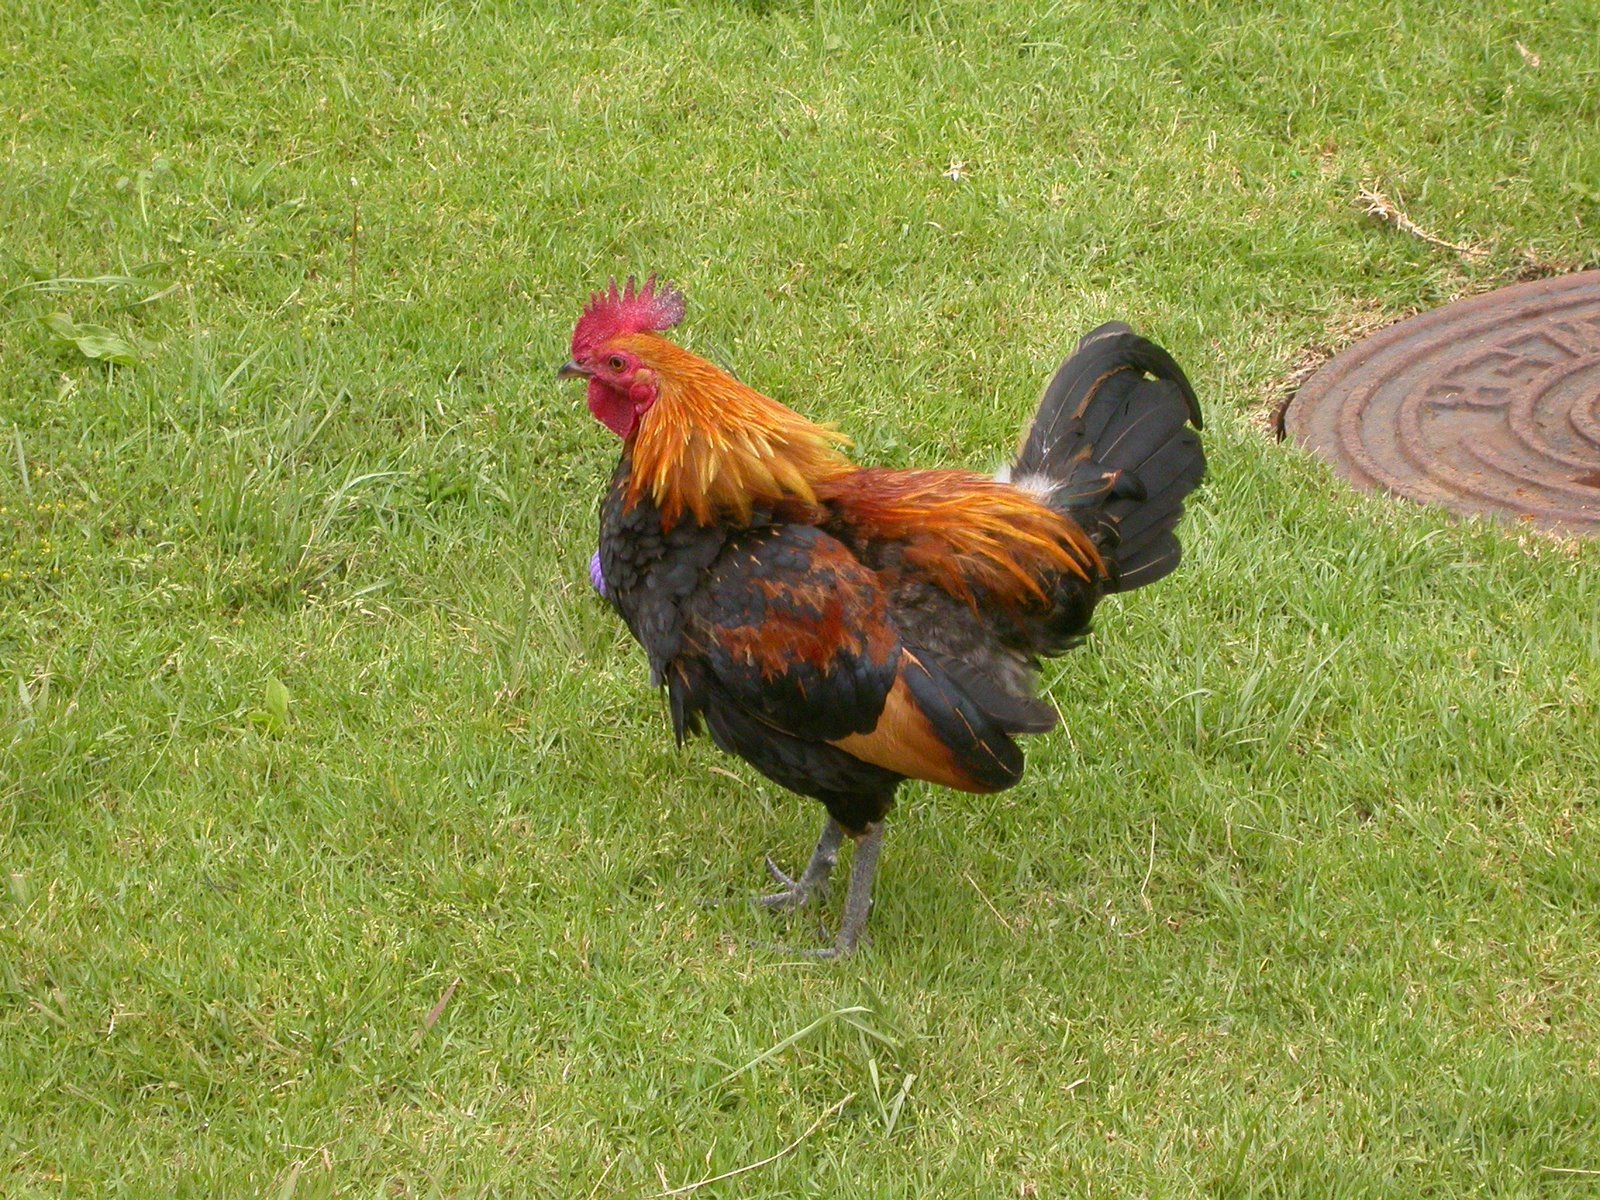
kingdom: Animalia
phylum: Chordata
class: Aves
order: Galliformes
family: Phasianidae
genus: Gallus
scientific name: Gallus gallus
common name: Red junglefowl
